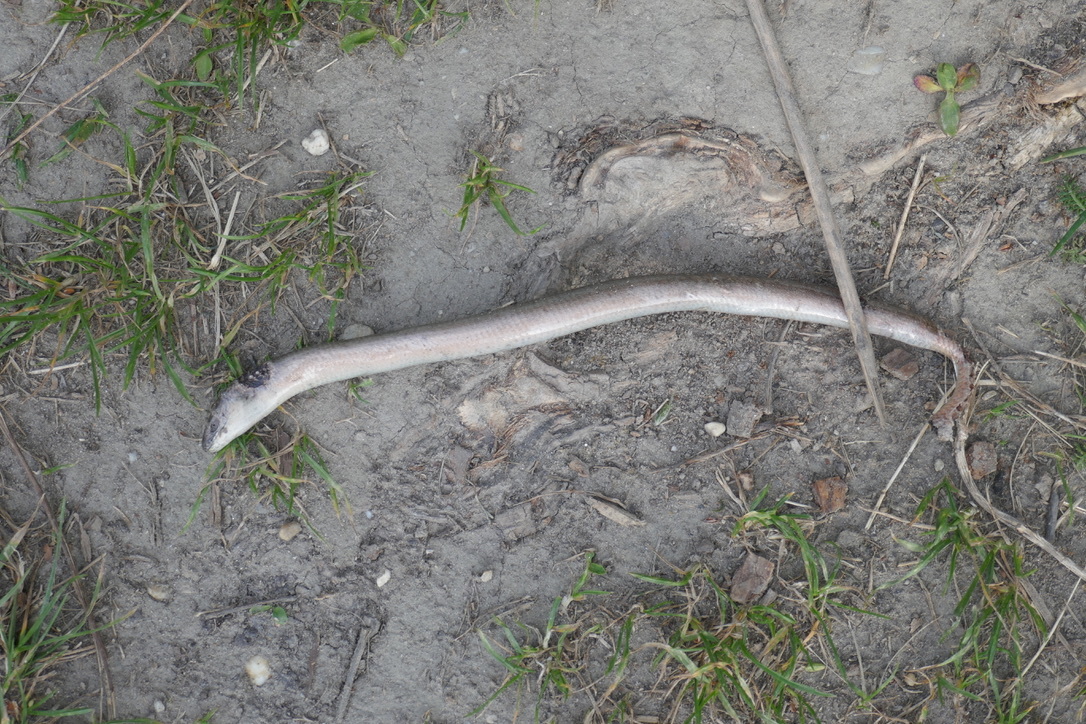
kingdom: Animalia
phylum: Chordata
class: Squamata
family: Anguidae
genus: Anguis
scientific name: Anguis fragilis
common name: Slow worm
